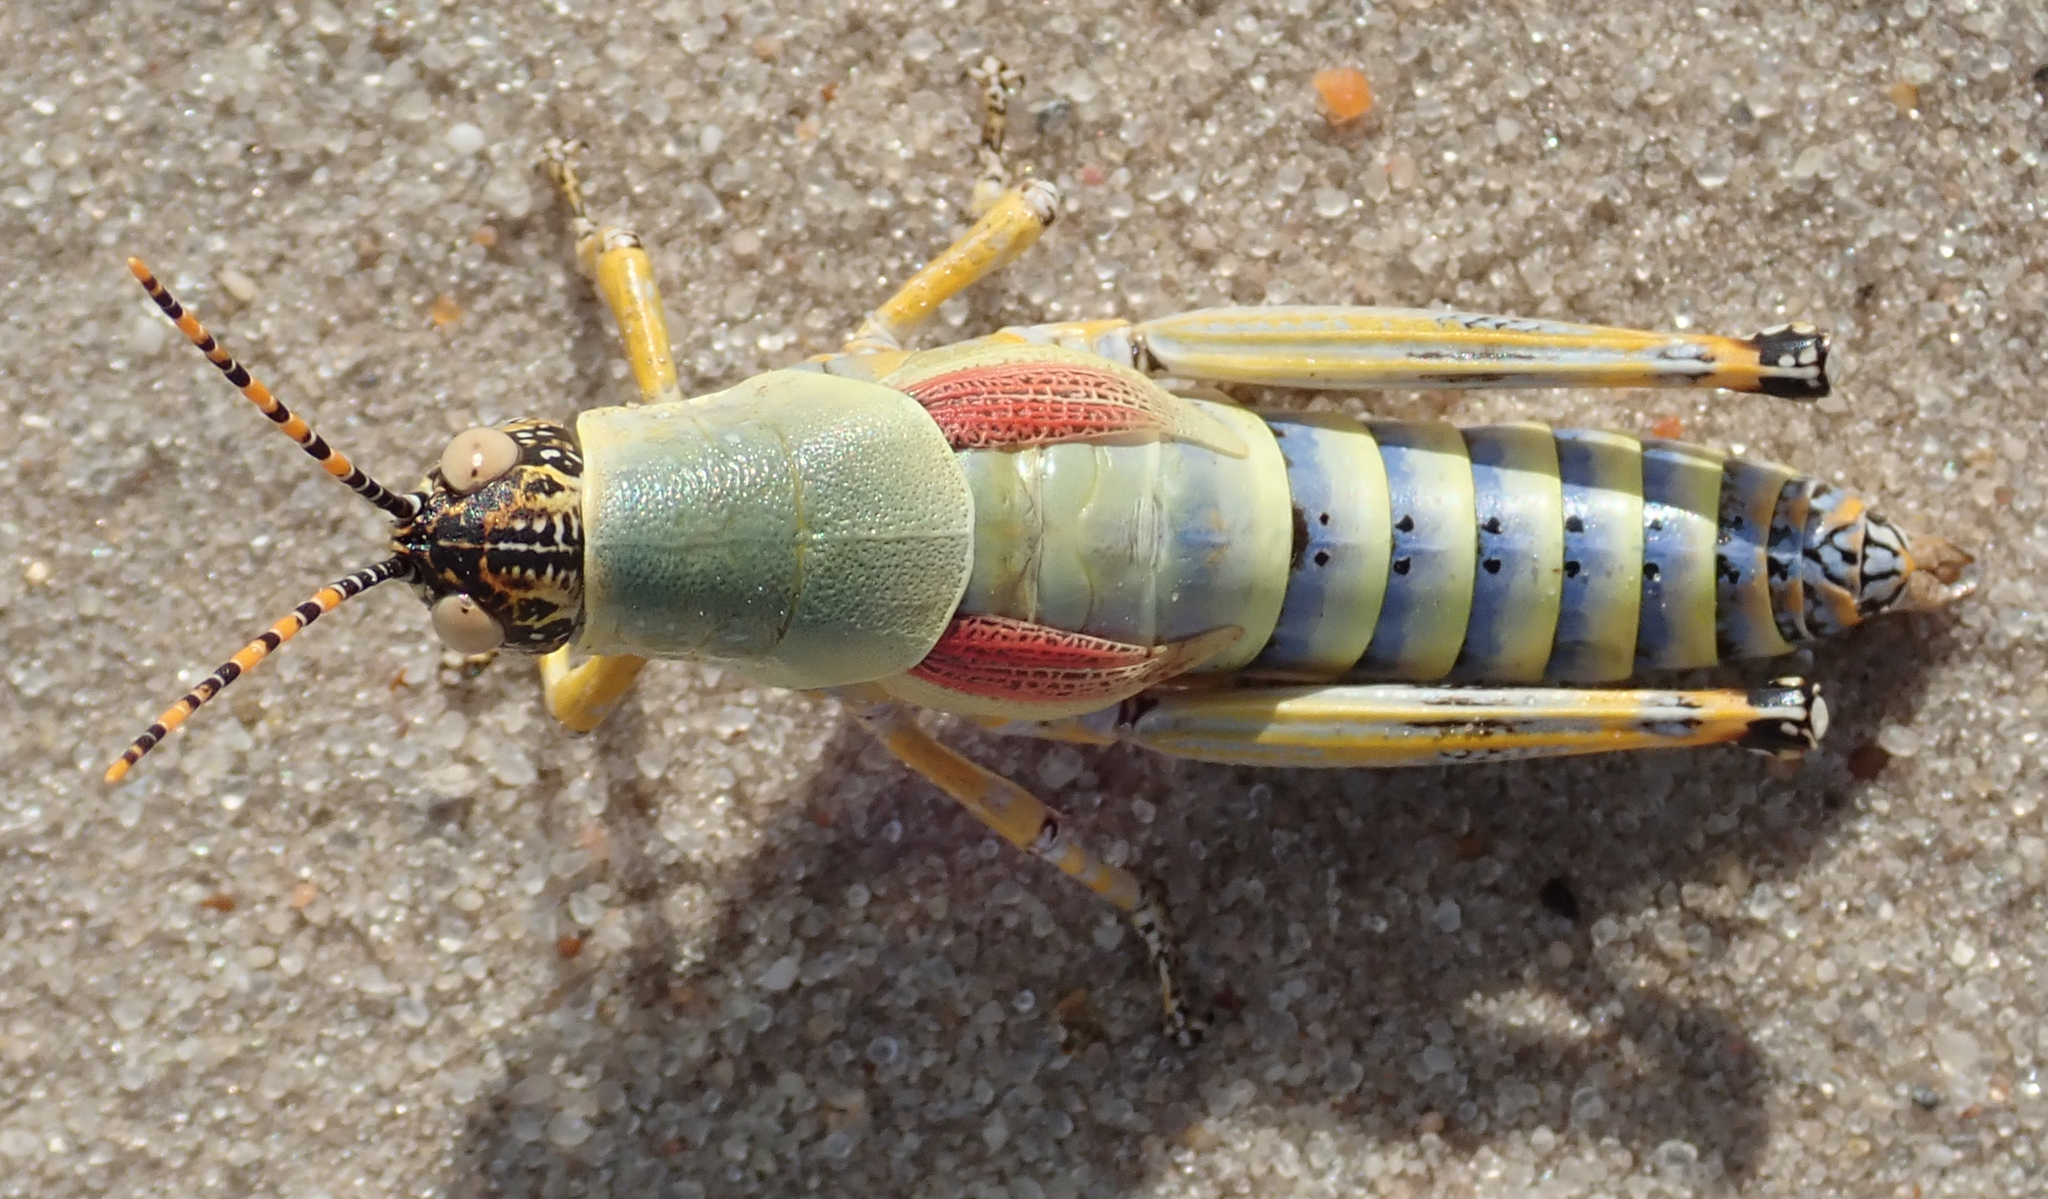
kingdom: Animalia
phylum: Arthropoda
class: Insecta
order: Orthoptera
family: Pyrgomorphidae
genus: Zonocerus
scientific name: Zonocerus elegans
